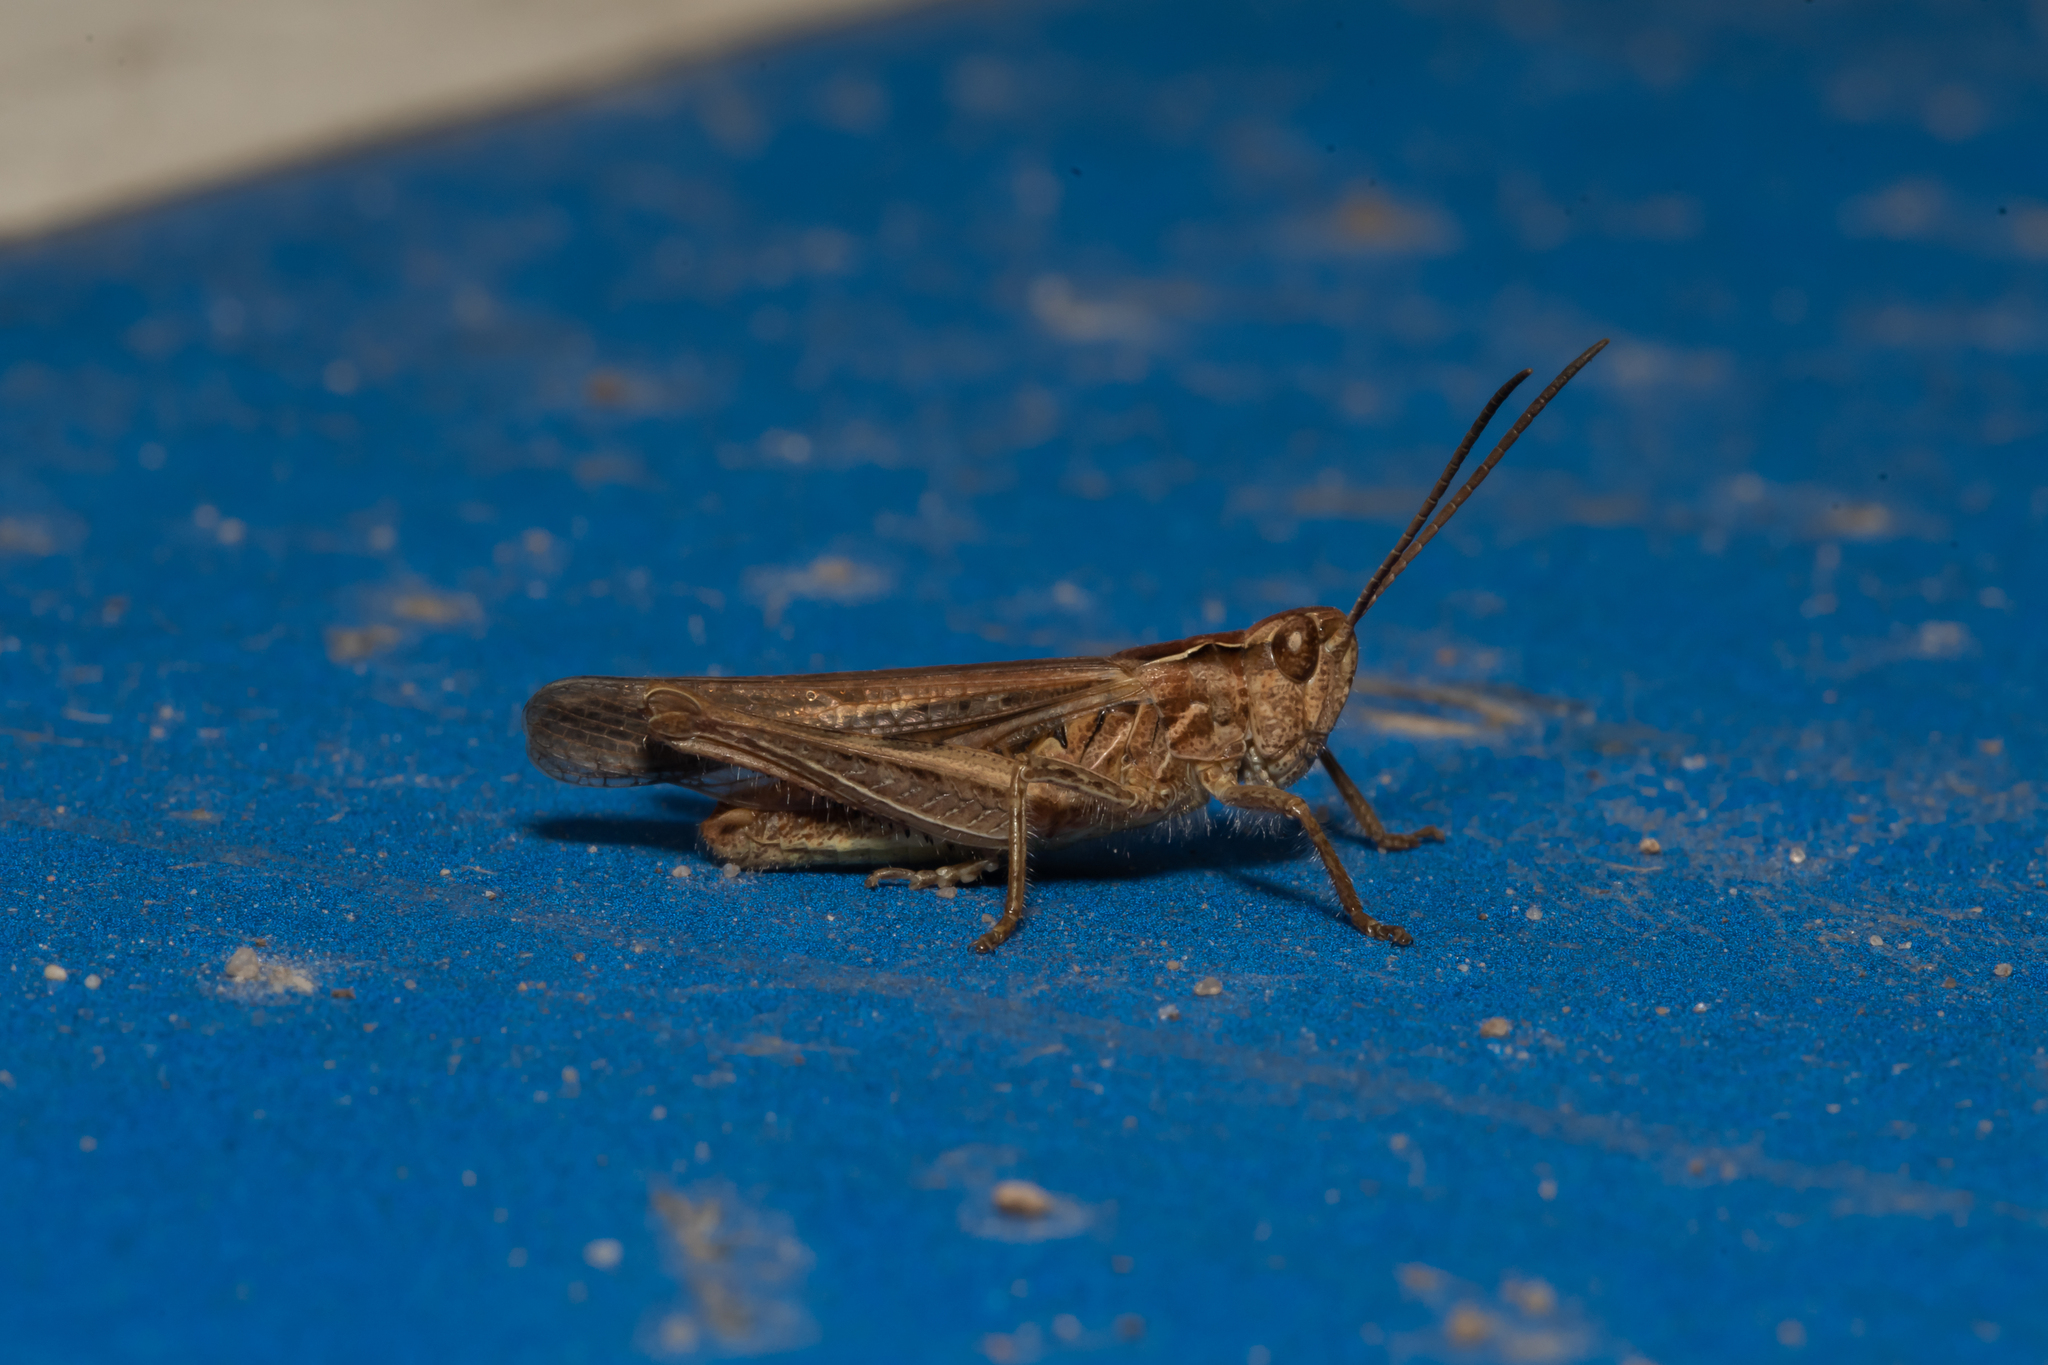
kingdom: Animalia
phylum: Arthropoda
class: Insecta
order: Orthoptera
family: Acrididae
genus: Chorthippus
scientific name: Chorthippus biguttulus
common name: Bow-winged grasshopper
